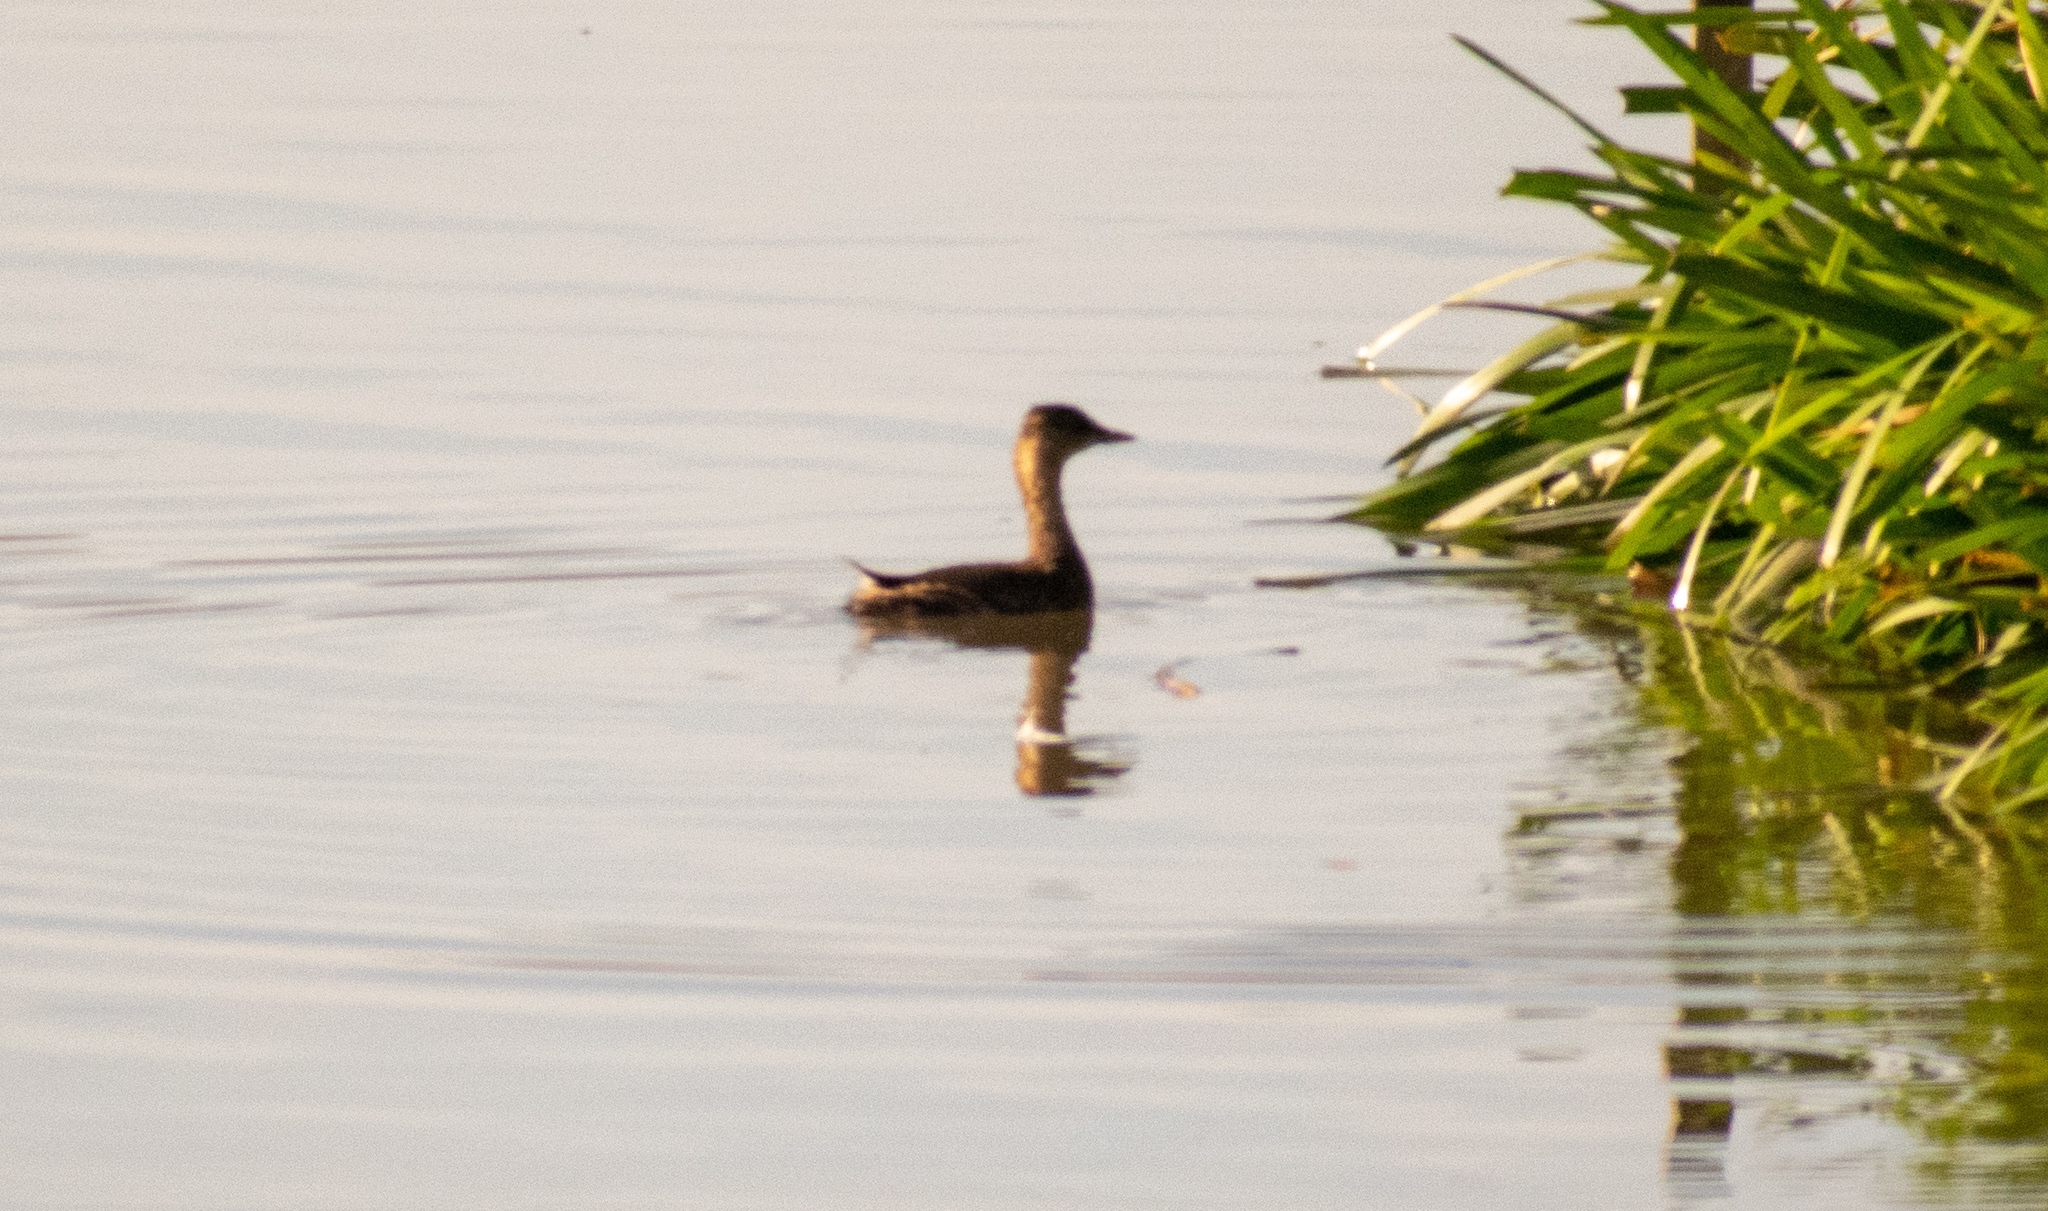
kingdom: Animalia
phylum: Chordata
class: Aves
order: Podicipediformes
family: Podicipedidae
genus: Tachybaptus
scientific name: Tachybaptus ruficollis
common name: Little grebe
